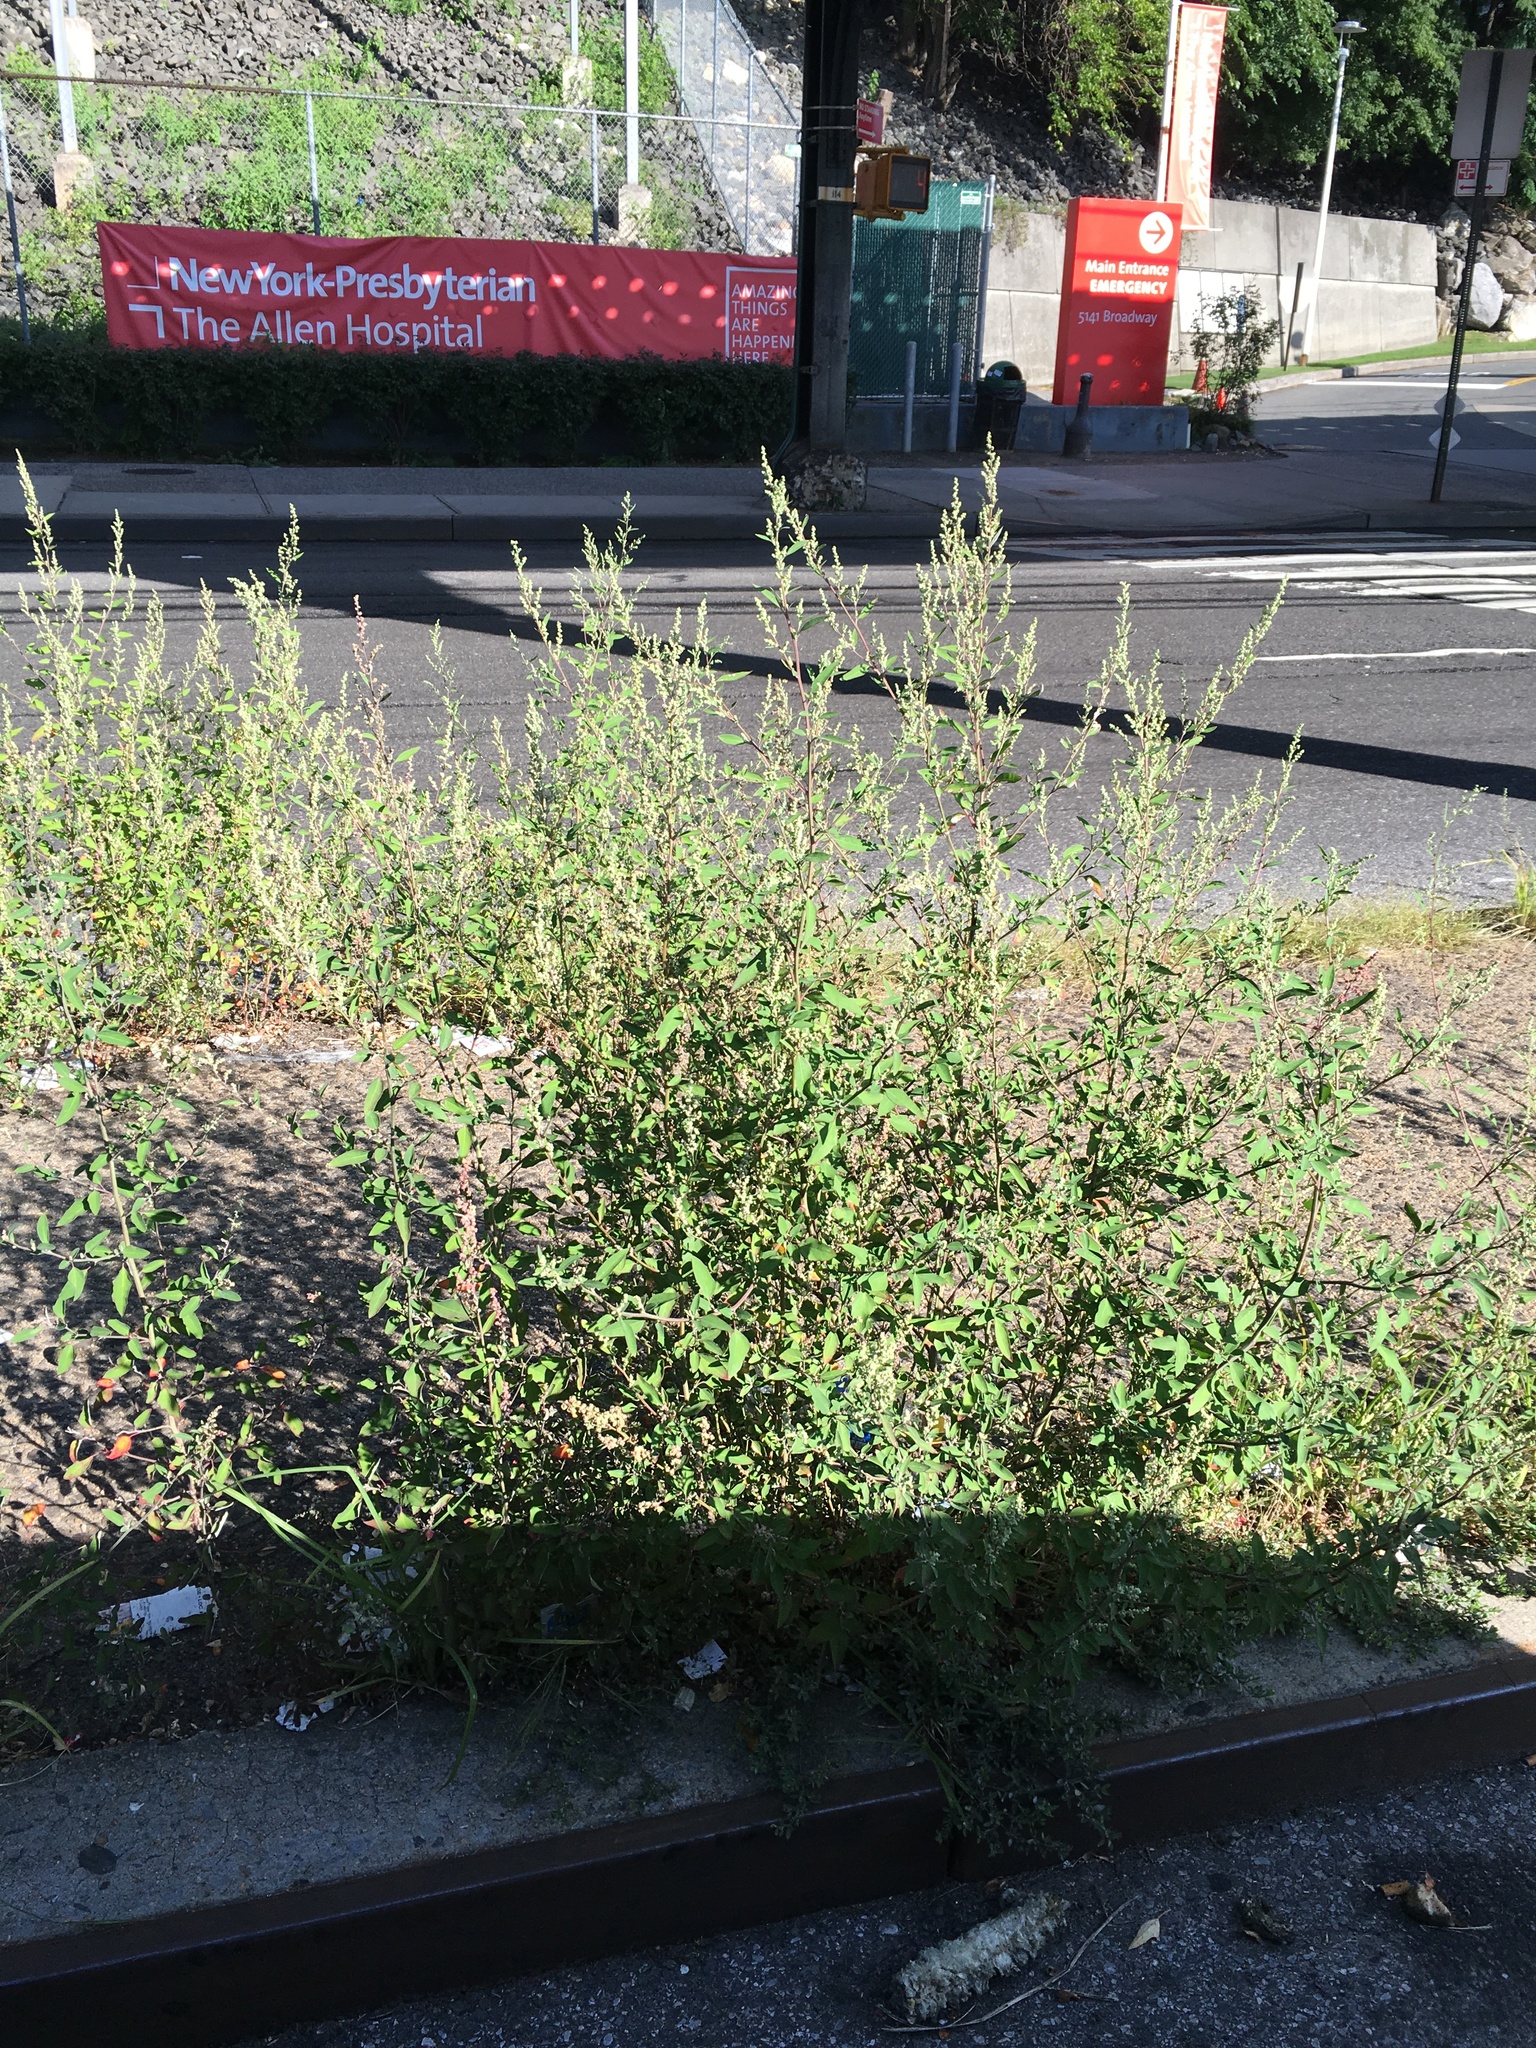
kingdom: Plantae
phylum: Tracheophyta
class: Magnoliopsida
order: Caryophyllales
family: Amaranthaceae
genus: Chenopodium
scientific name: Chenopodium album
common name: Fat-hen
